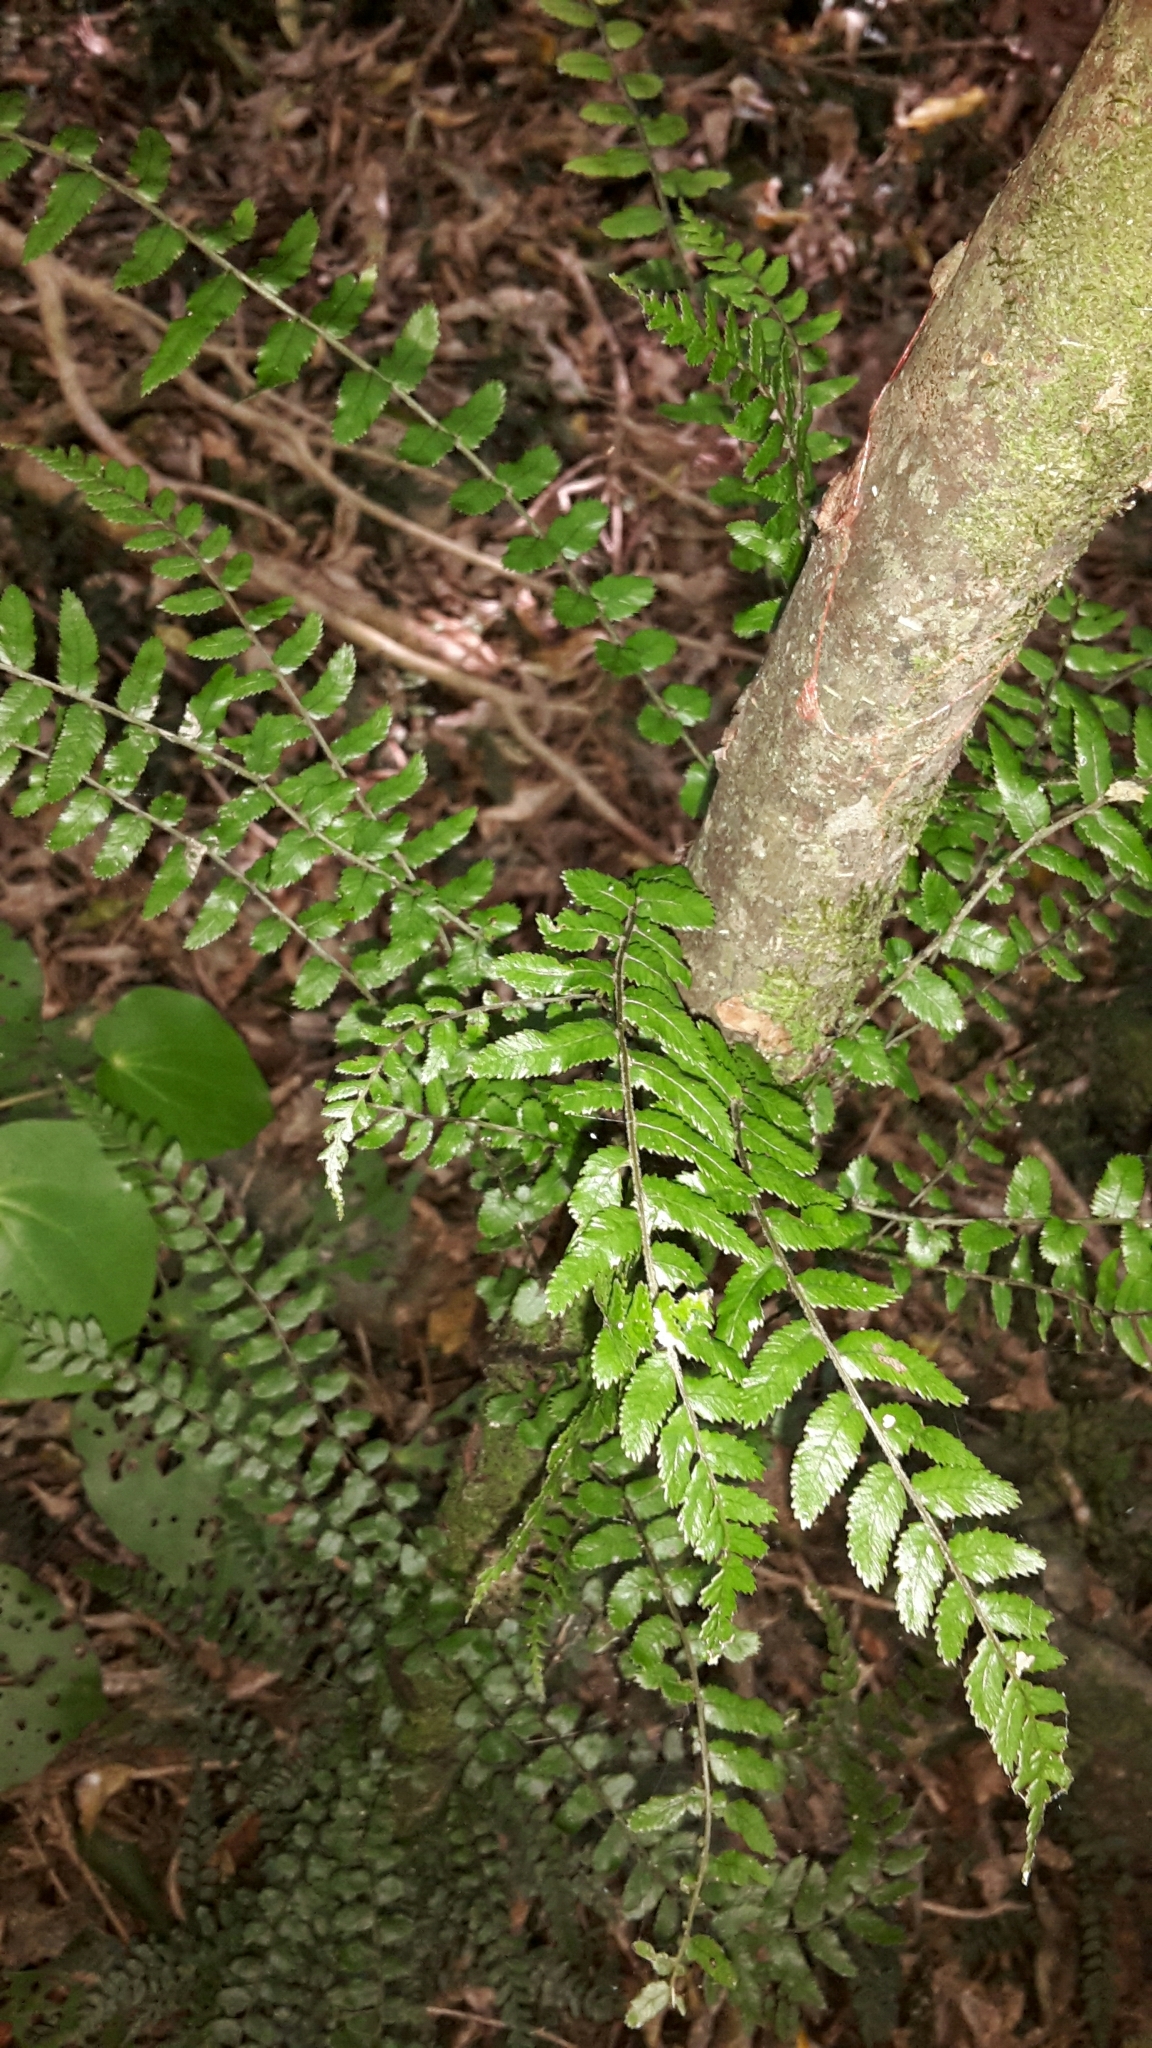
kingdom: Plantae
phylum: Tracheophyta
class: Polypodiopsida
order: Polypodiales
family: Blechnaceae
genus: Icarus
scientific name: Icarus filiformis
